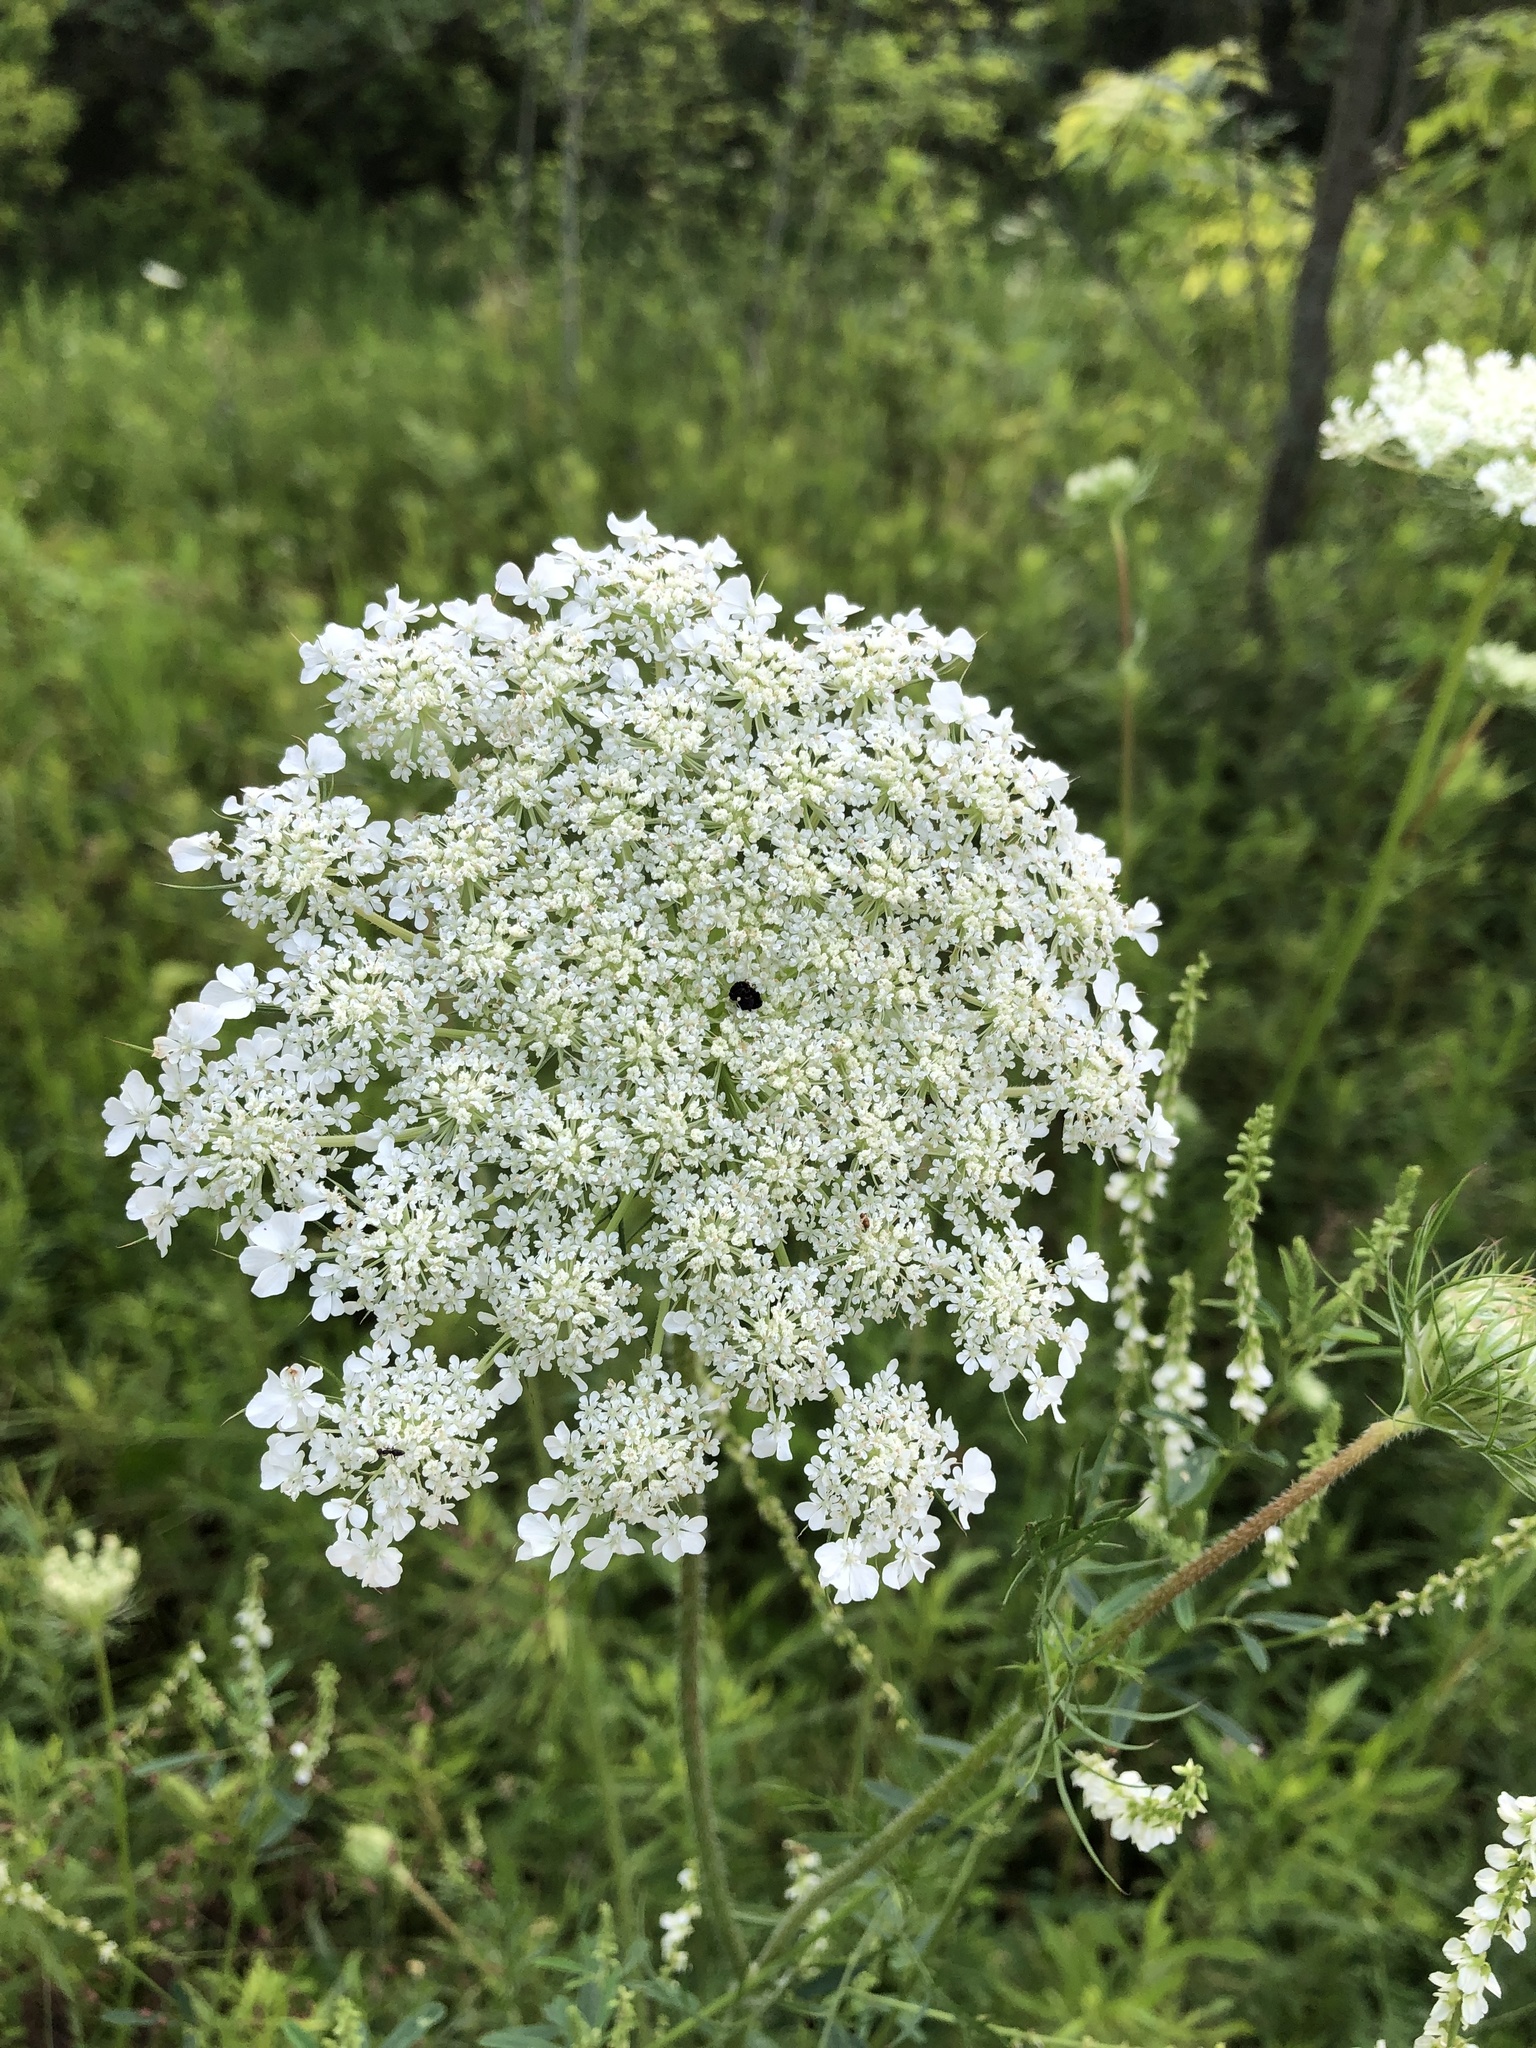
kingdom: Plantae
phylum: Tracheophyta
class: Magnoliopsida
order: Apiales
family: Apiaceae
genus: Daucus
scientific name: Daucus carota
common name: Wild carrot
